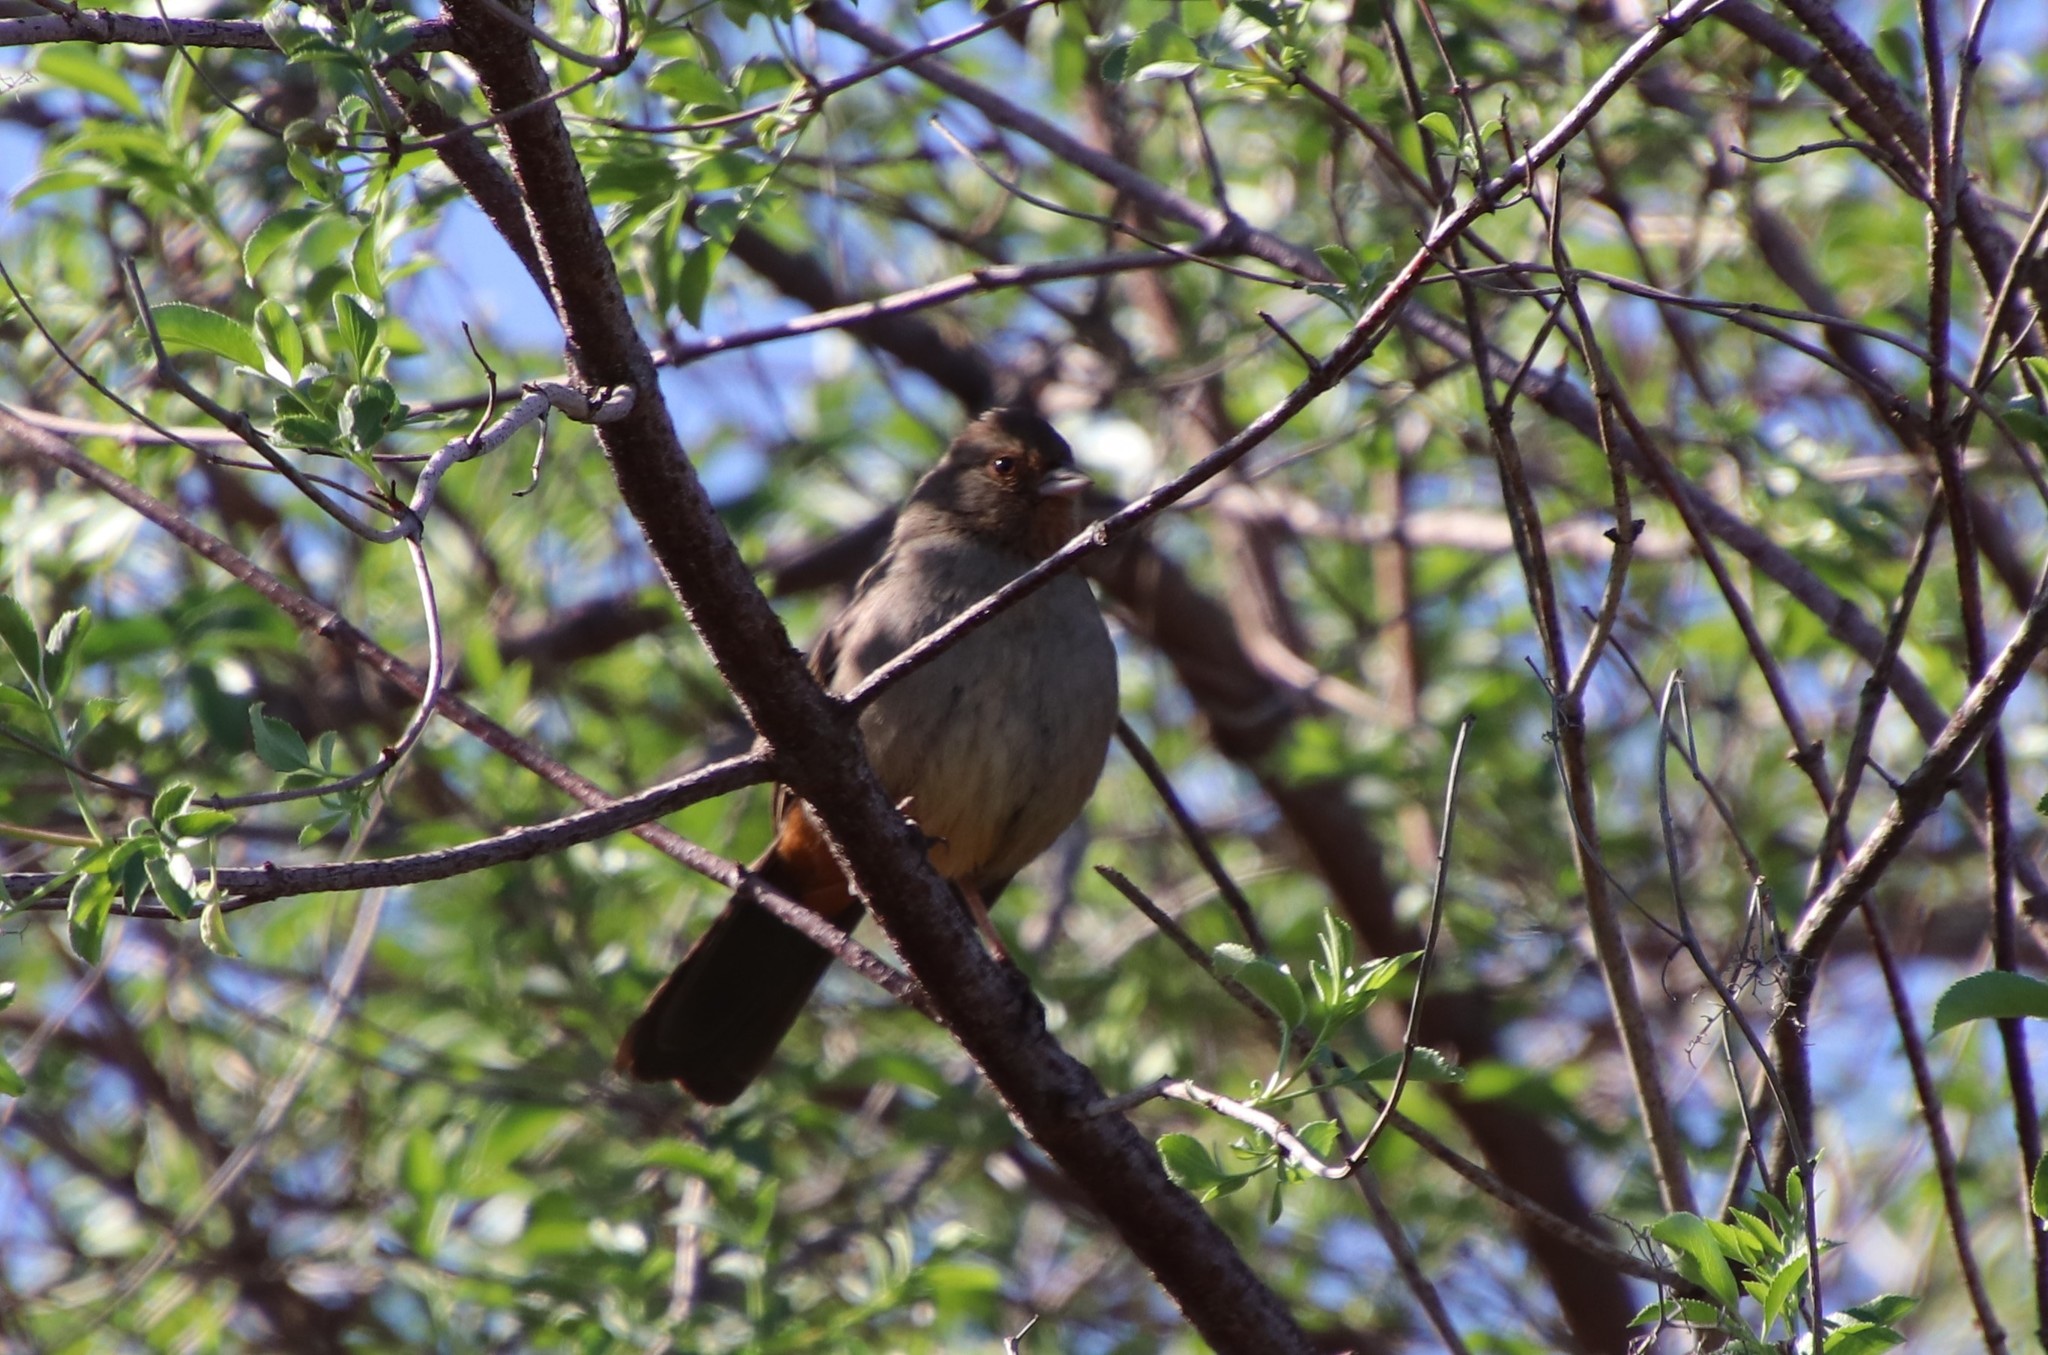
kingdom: Animalia
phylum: Chordata
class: Aves
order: Passeriformes
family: Passerellidae
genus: Melozone
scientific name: Melozone crissalis
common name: California towhee
